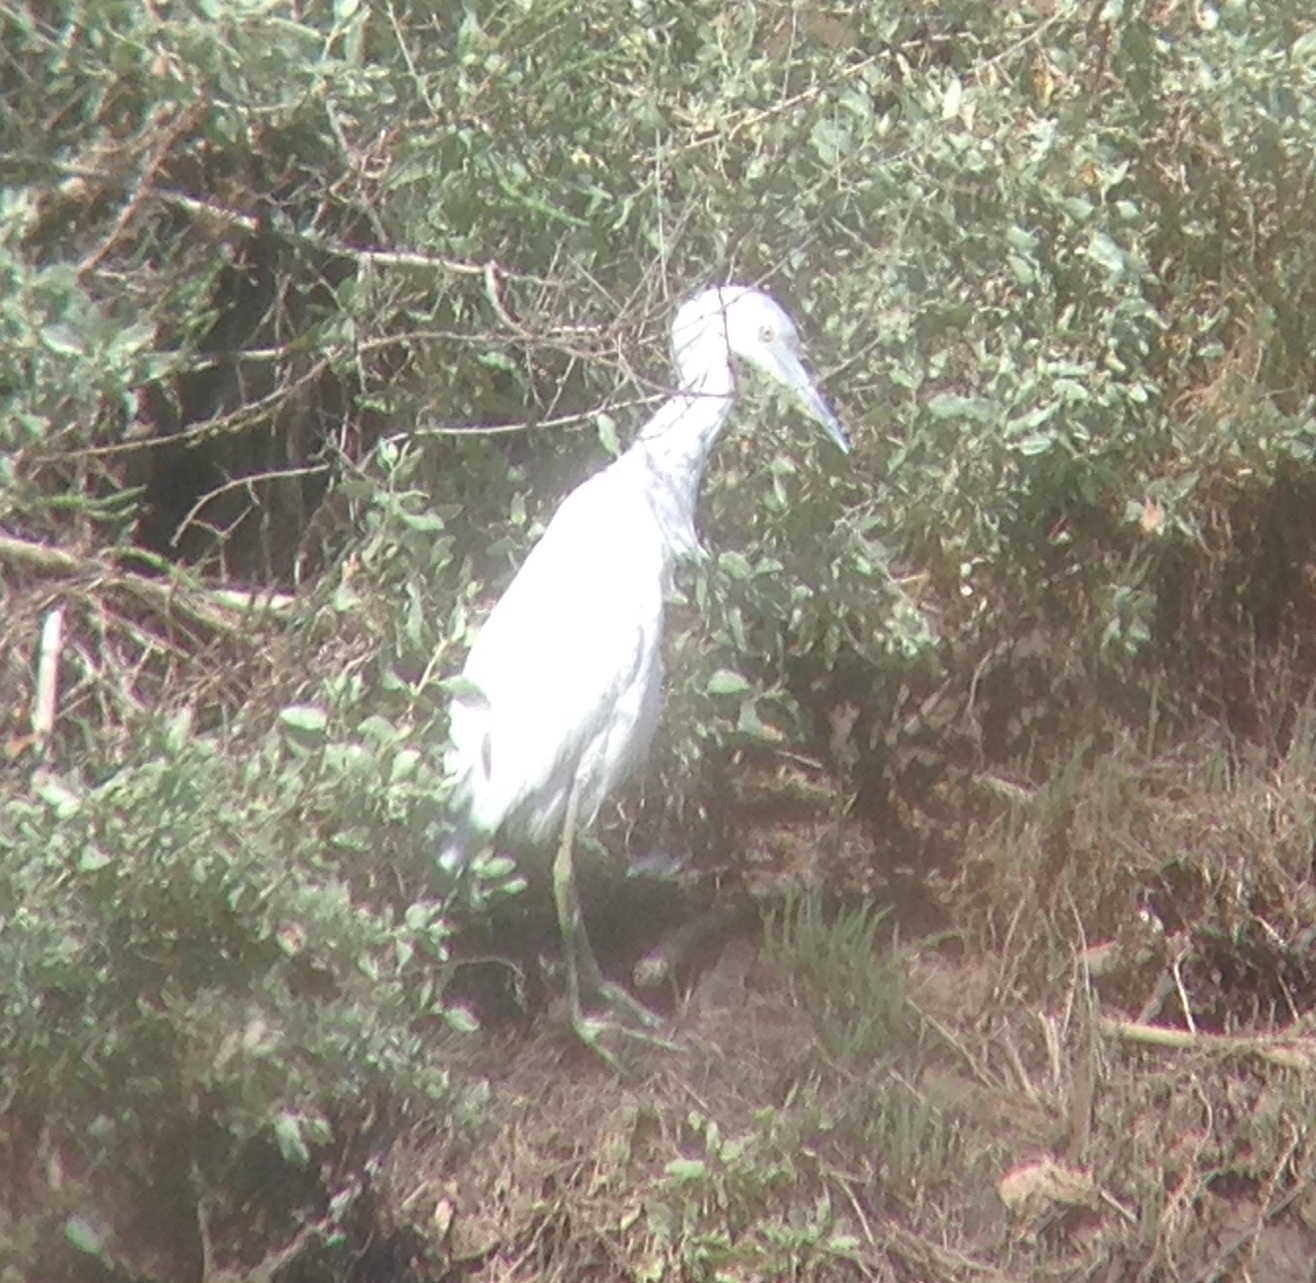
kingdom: Animalia
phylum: Chordata
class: Aves
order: Pelecaniformes
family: Ardeidae
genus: Egretta
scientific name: Egretta caerulea
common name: Little blue heron
